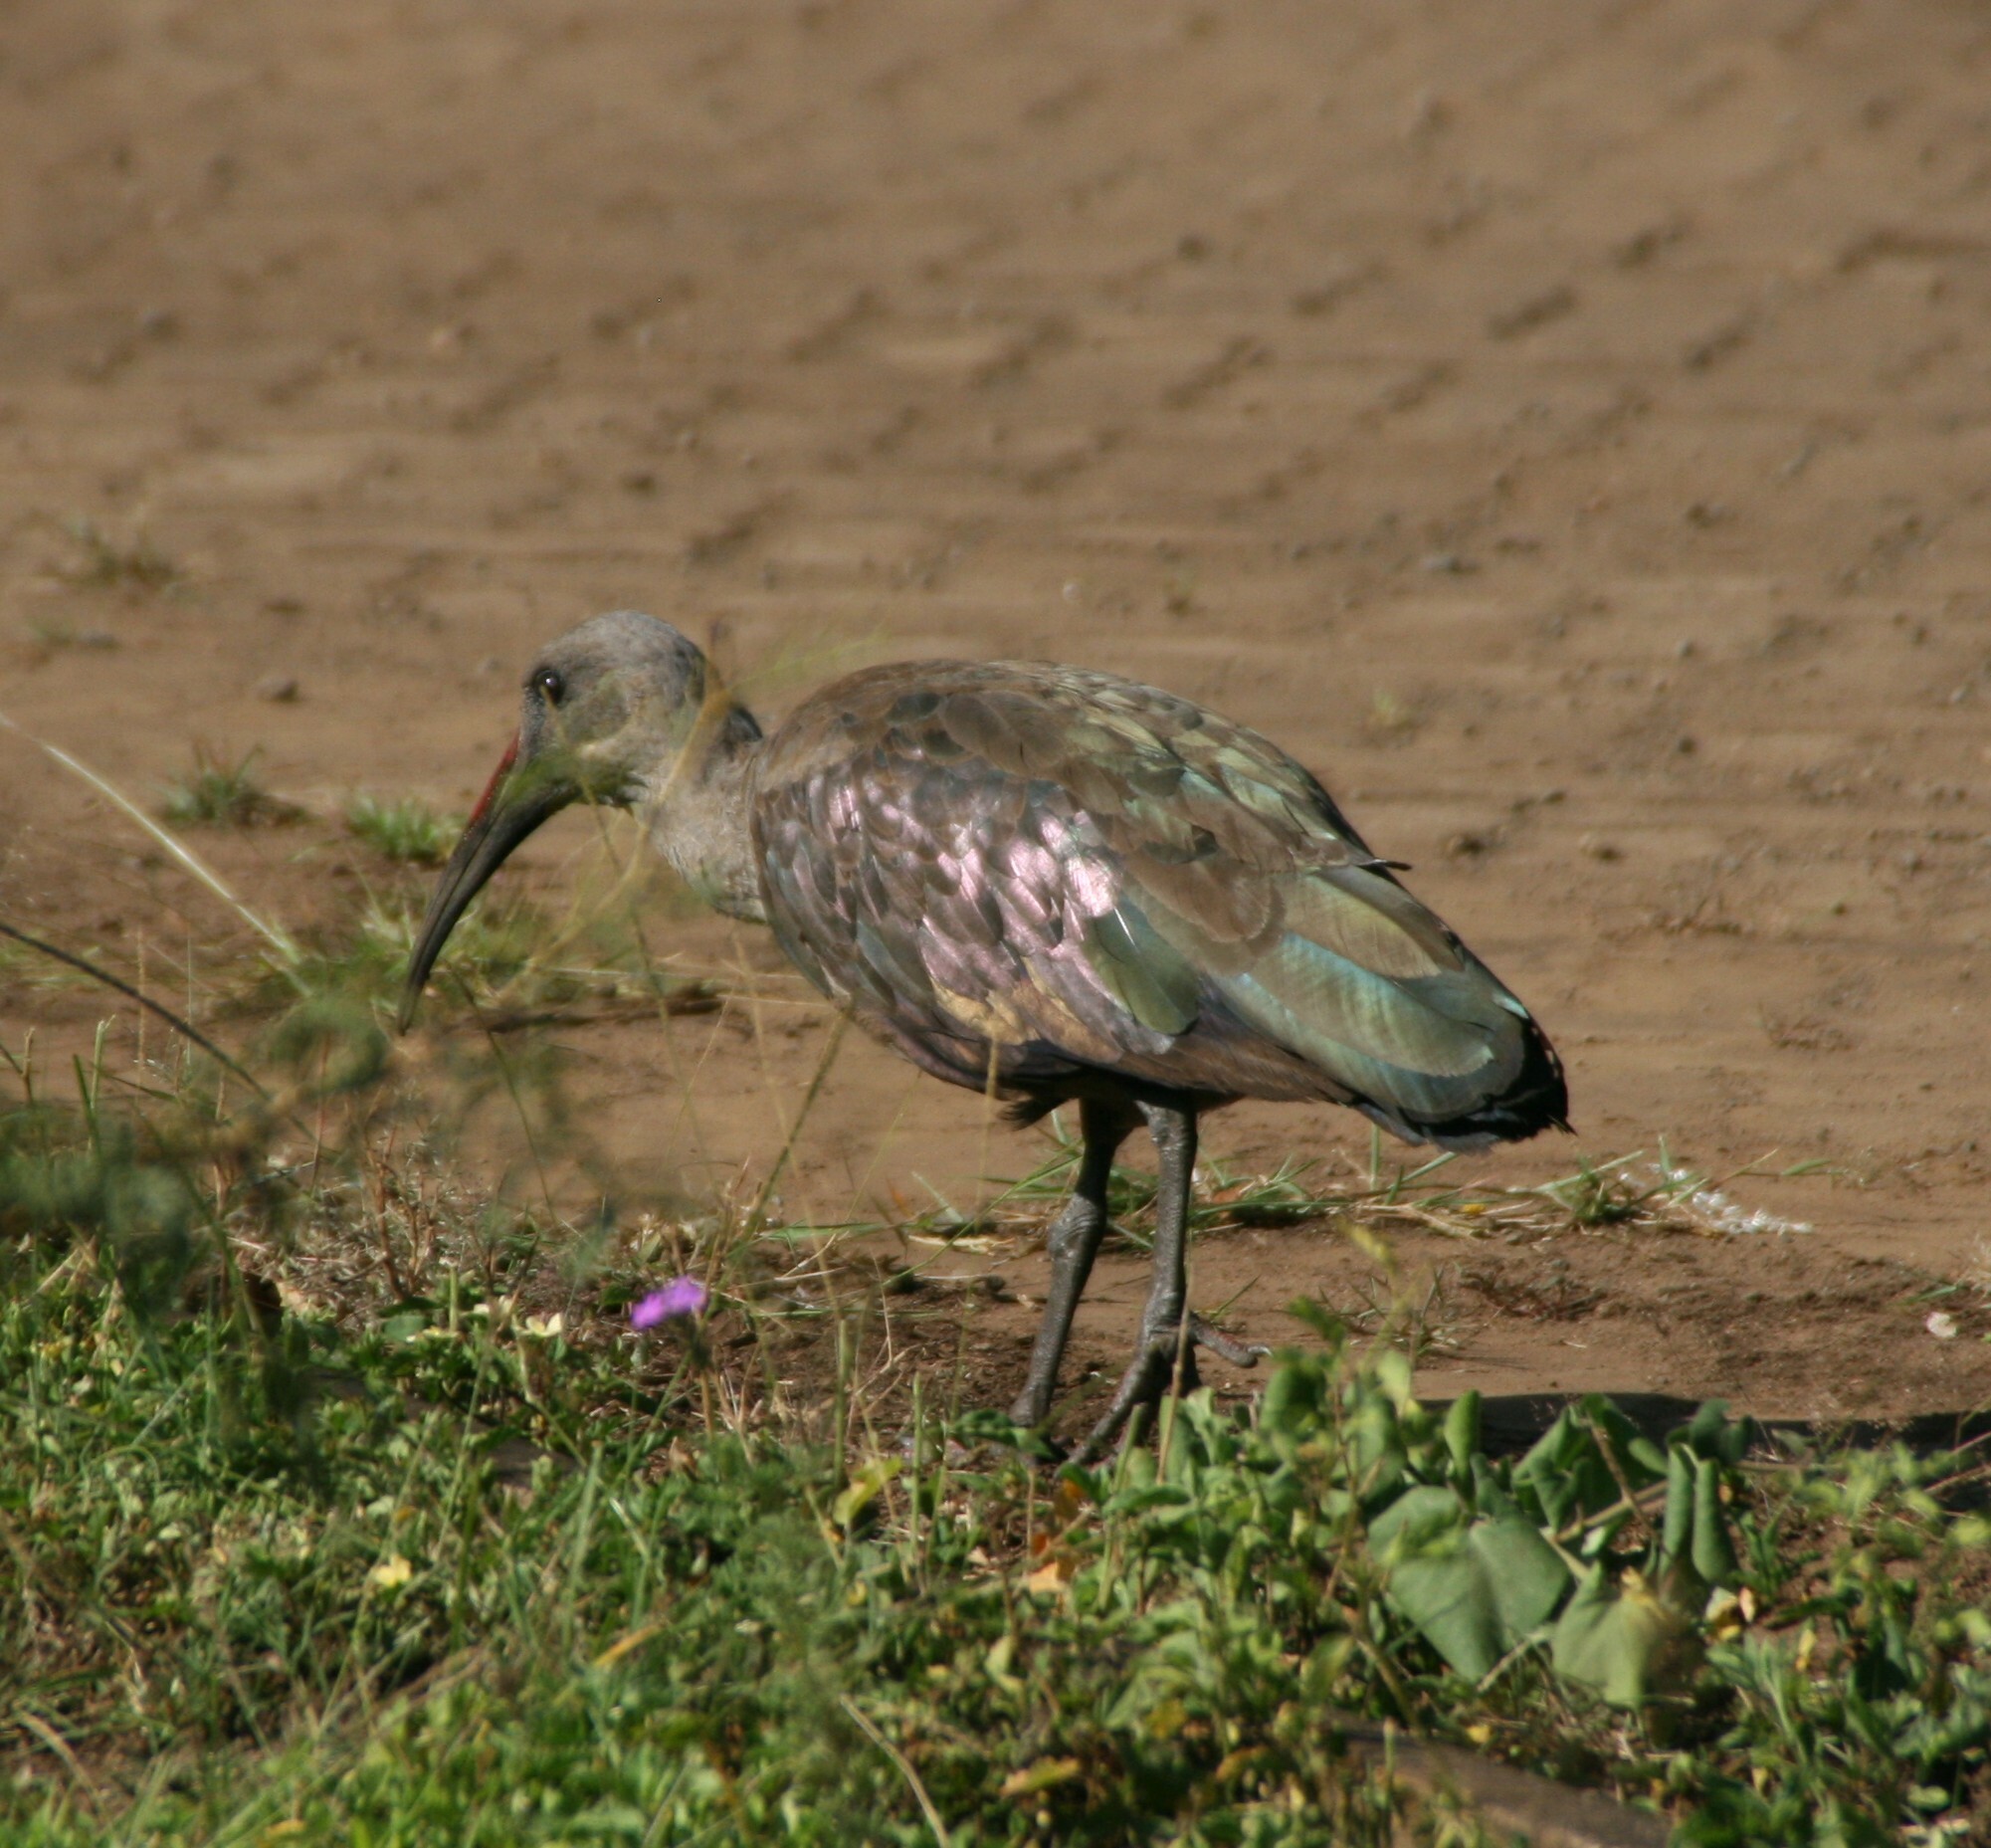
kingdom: Animalia
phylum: Chordata
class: Aves
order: Pelecaniformes
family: Threskiornithidae
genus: Bostrychia
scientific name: Bostrychia hagedash
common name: Hadada ibis
